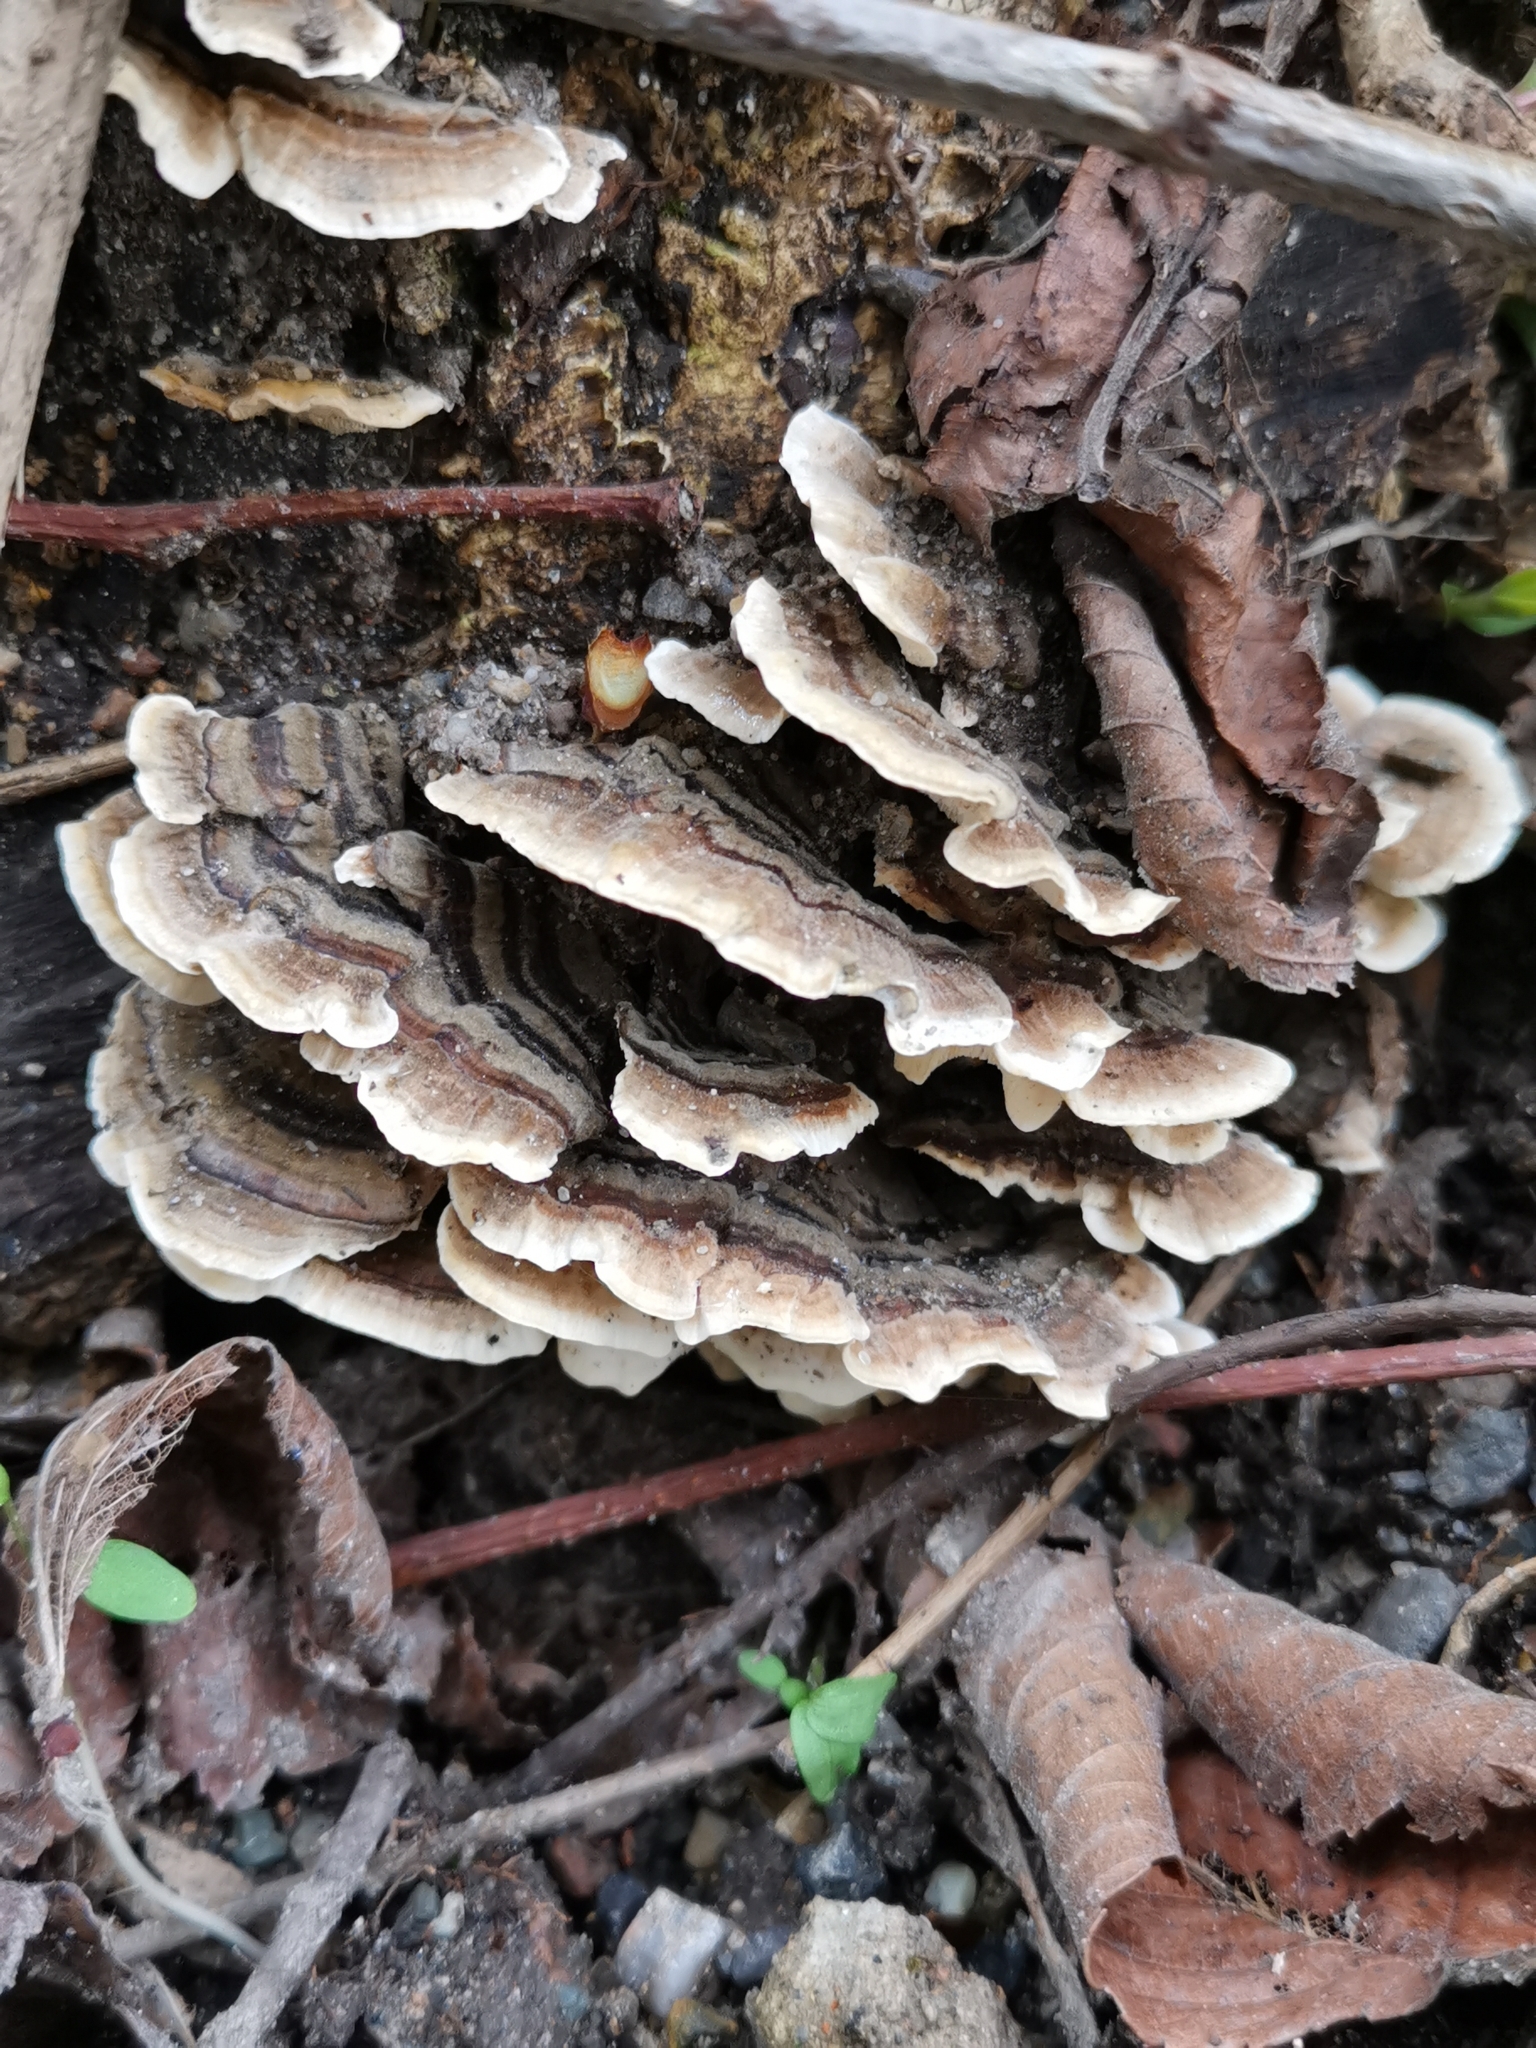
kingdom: Fungi
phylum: Basidiomycota
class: Agaricomycetes
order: Polyporales
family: Polyporaceae
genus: Trametes
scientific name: Trametes versicolor
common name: Turkeytail
